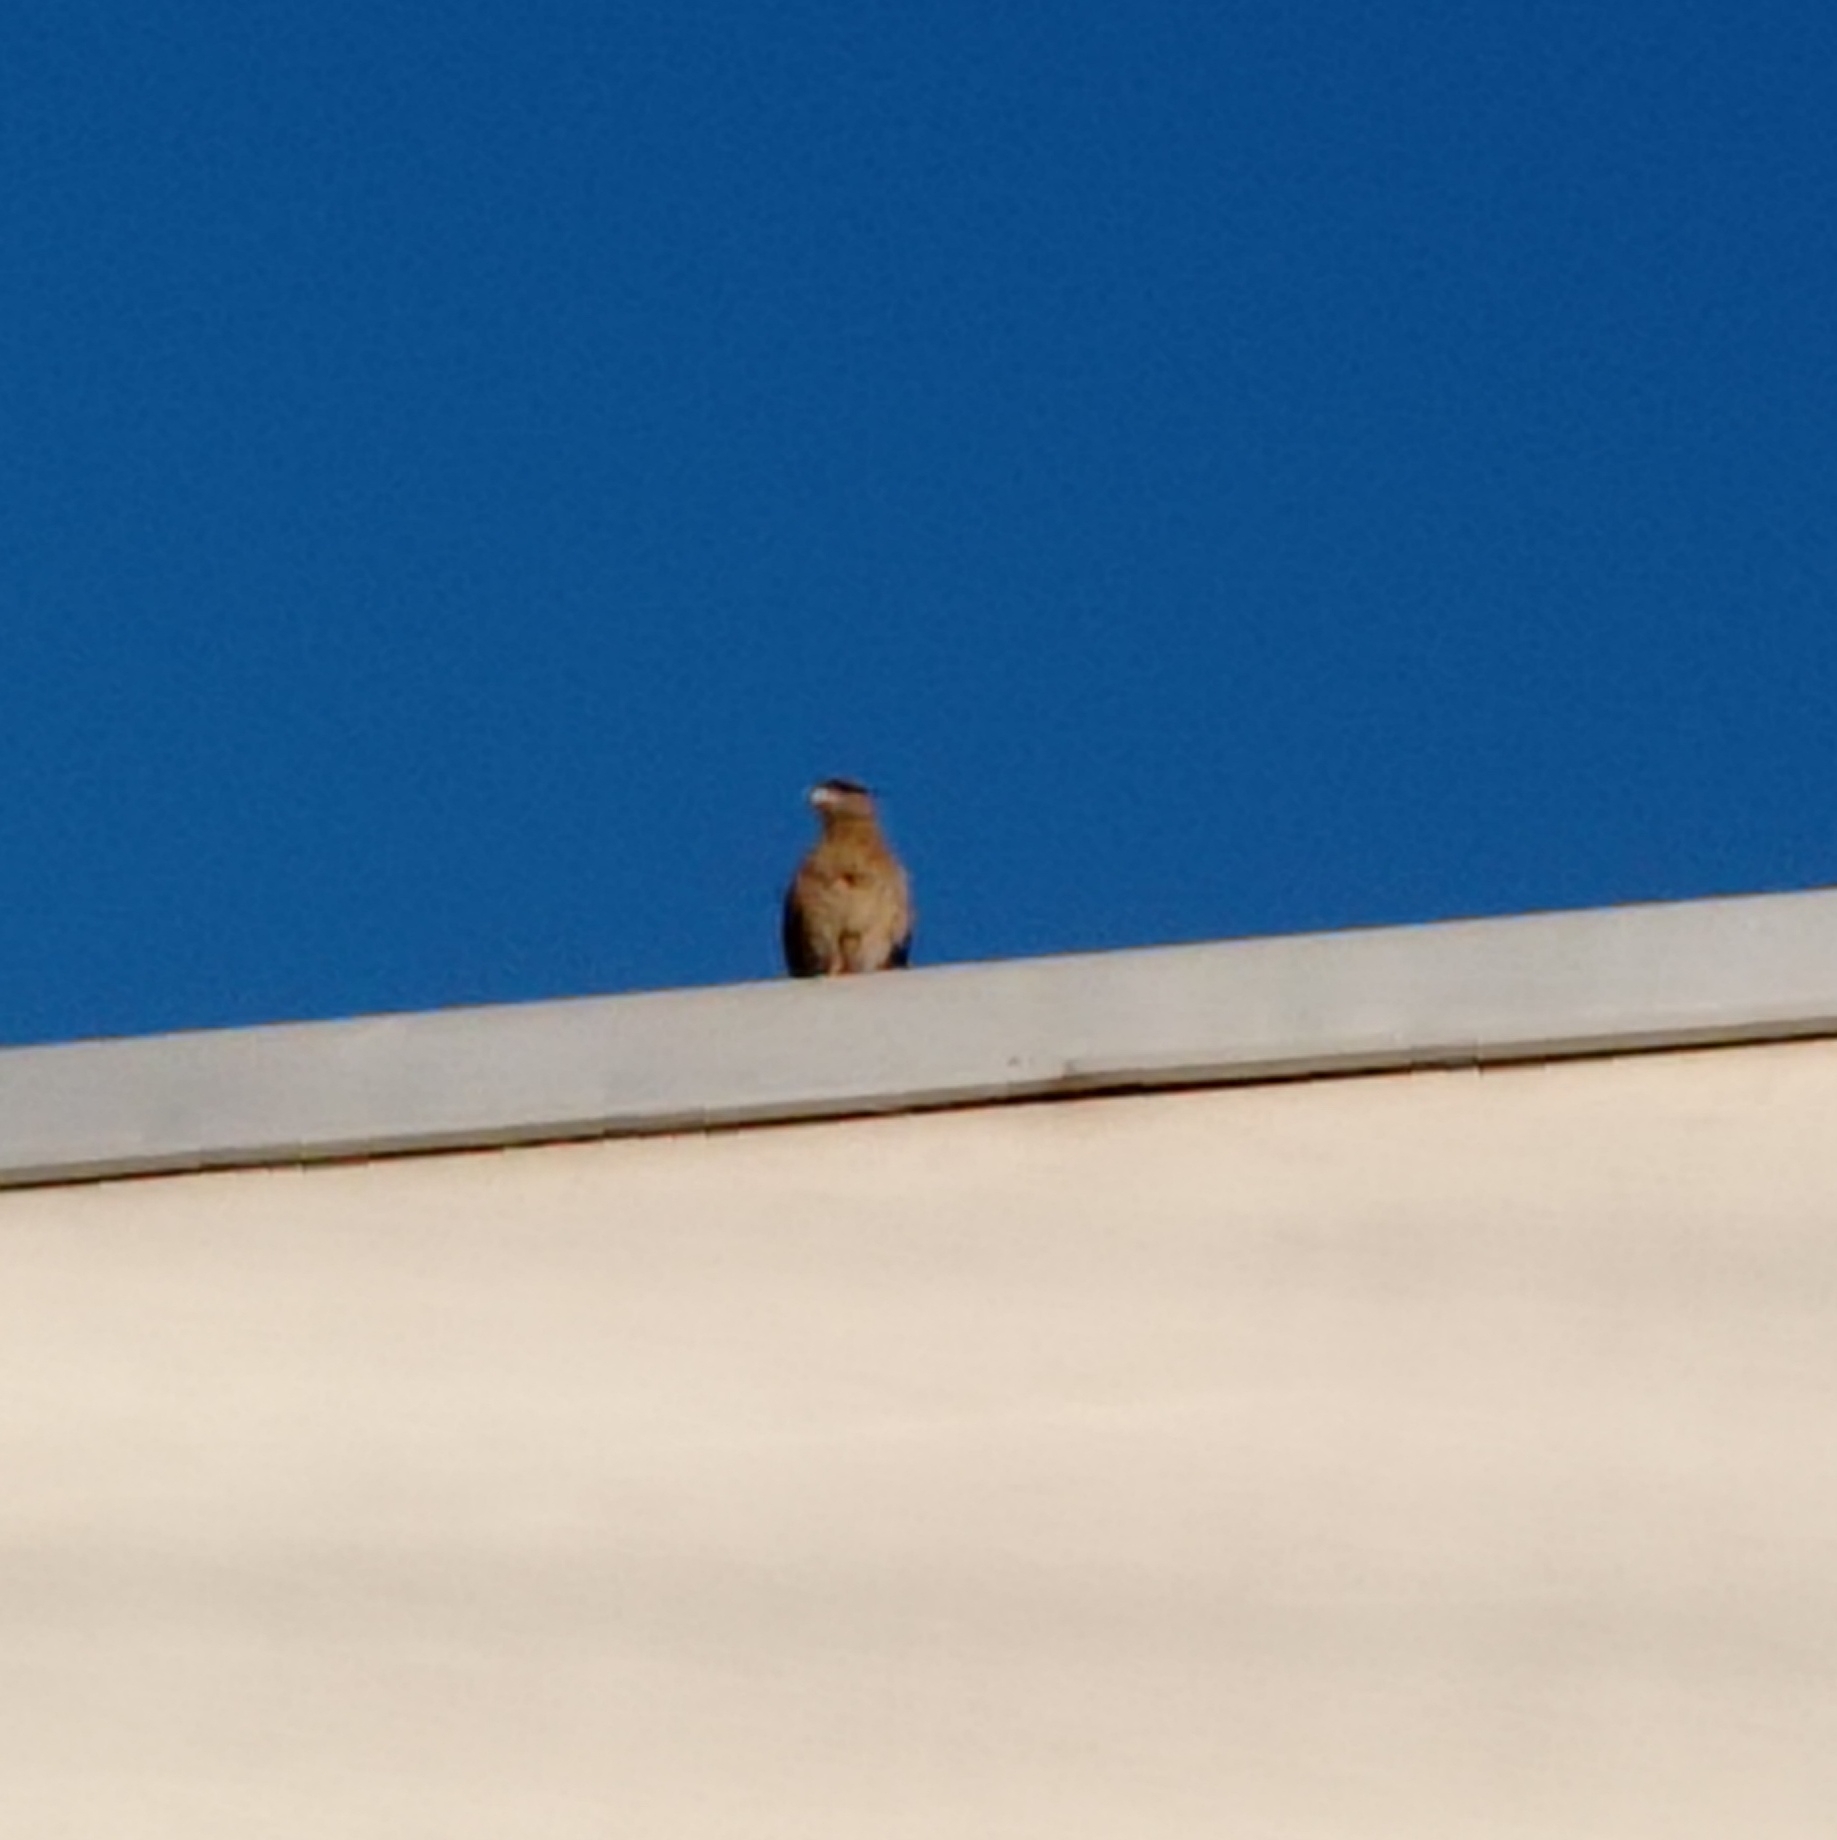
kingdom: Animalia
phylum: Chordata
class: Aves
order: Falconiformes
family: Falconidae
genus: Daptrius
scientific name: Daptrius
